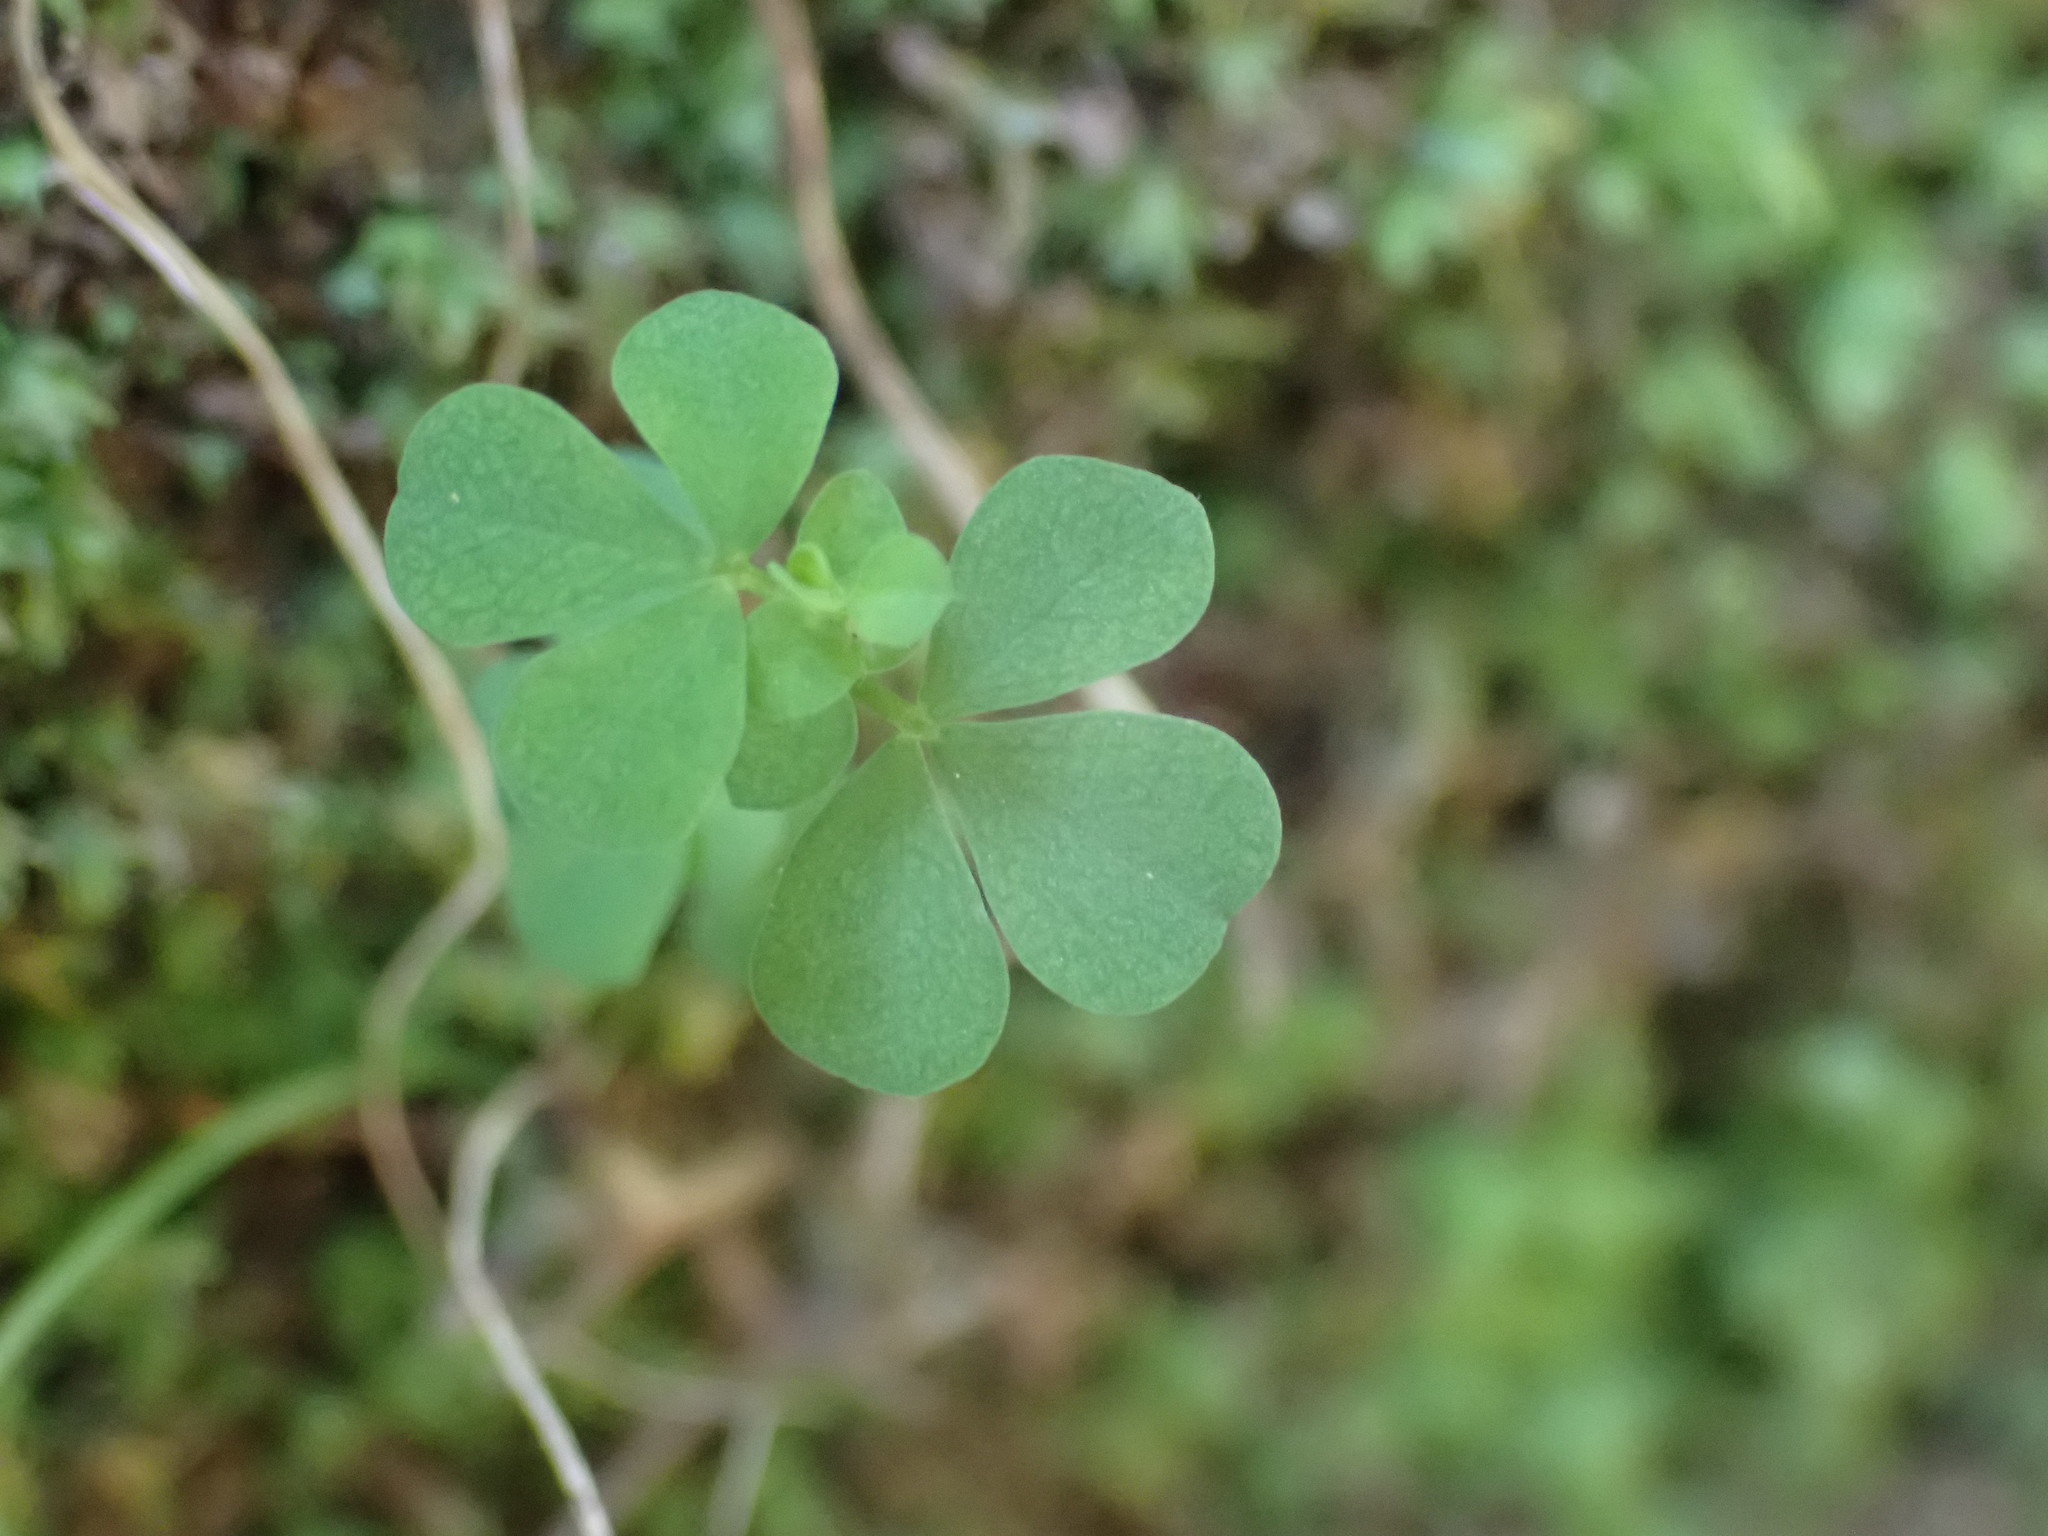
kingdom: Plantae
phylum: Tracheophyta
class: Magnoliopsida
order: Fabales
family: Fabaceae
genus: Lotus
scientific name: Lotus pedunculatus
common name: Greater birdsfoot-trefoil
